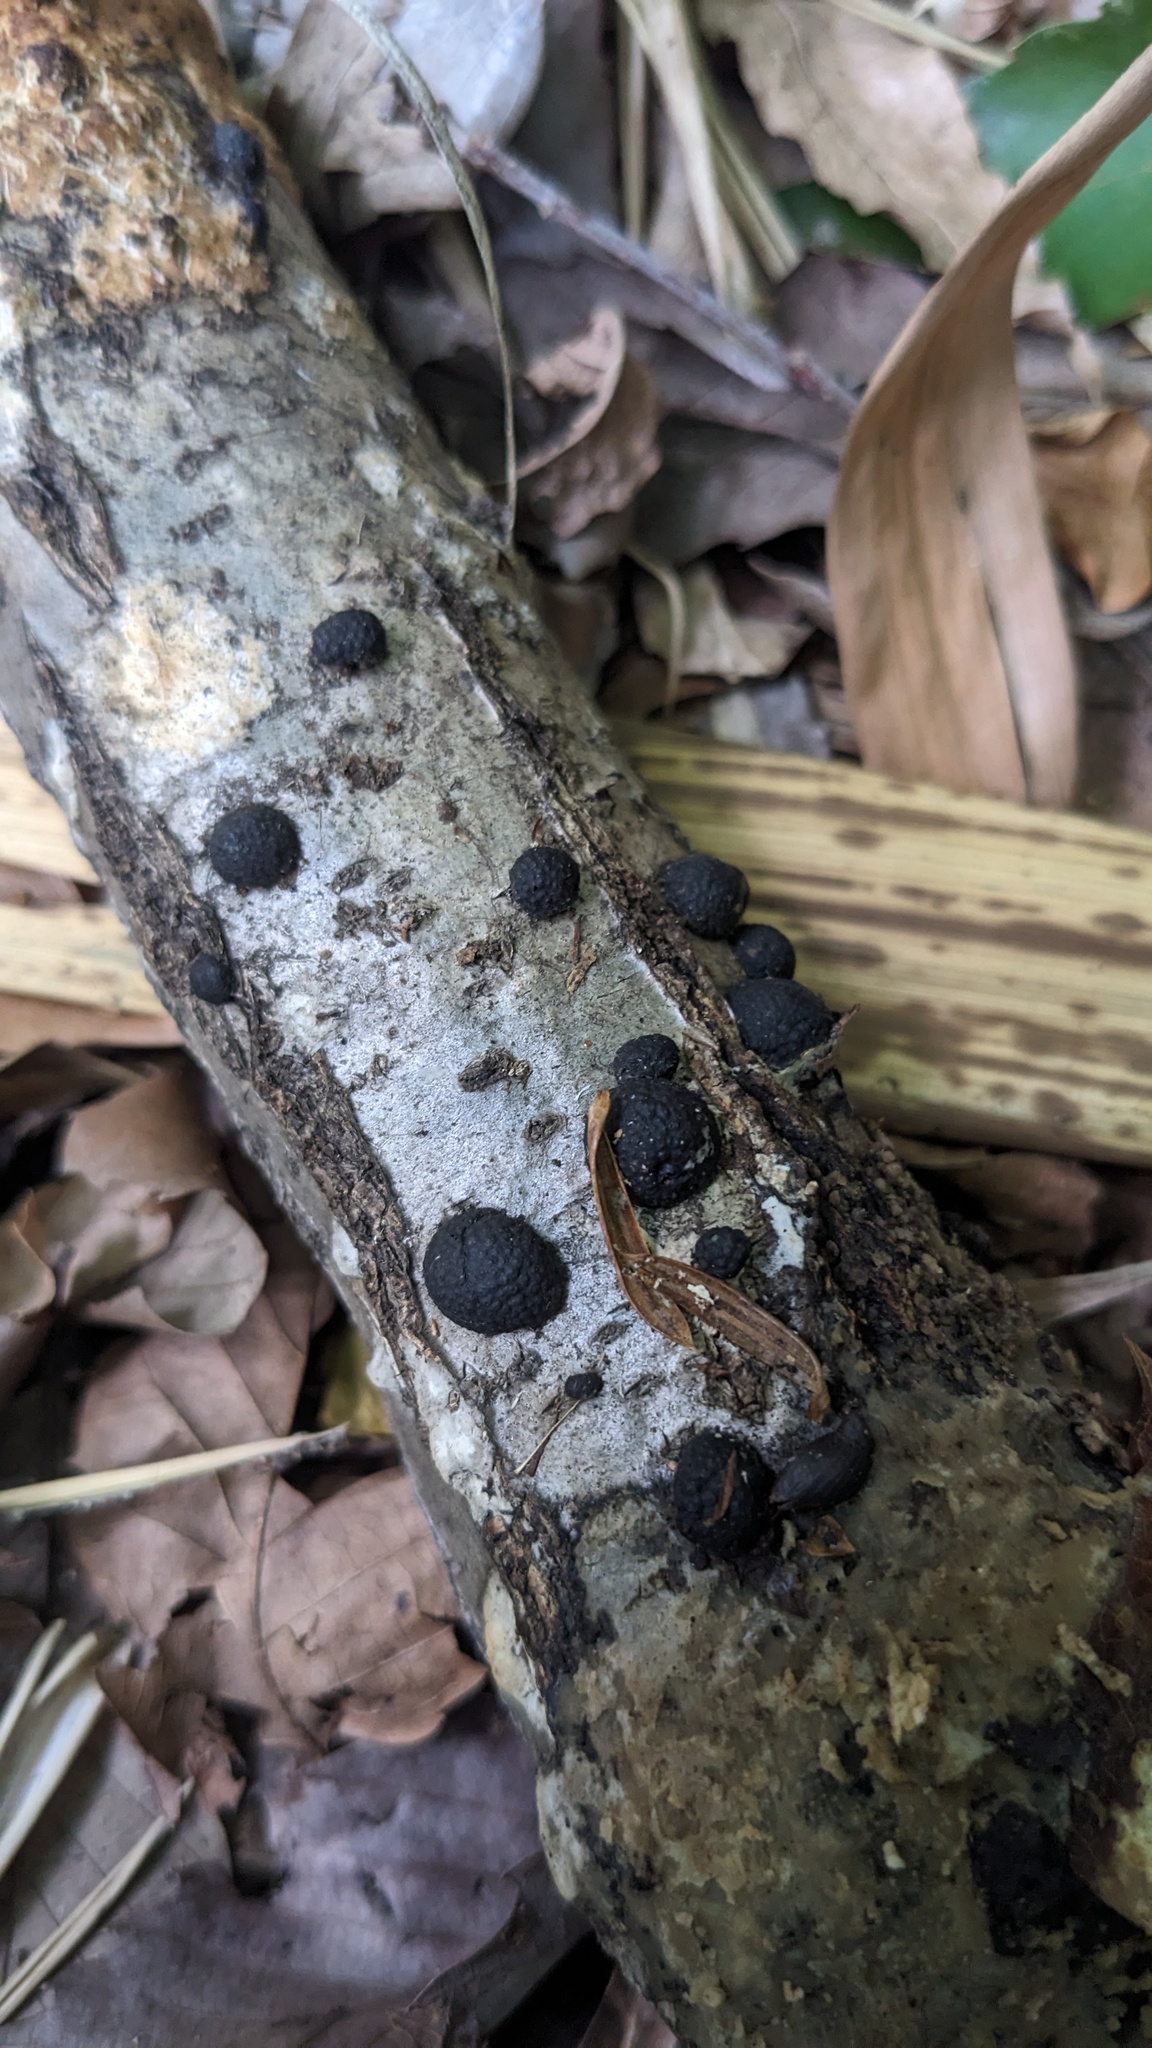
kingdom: Fungi
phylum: Ascomycota
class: Sordariomycetes
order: Xylariales
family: Hypoxylaceae
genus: Annulohypoxylon
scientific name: Annulohypoxylon truncatum
